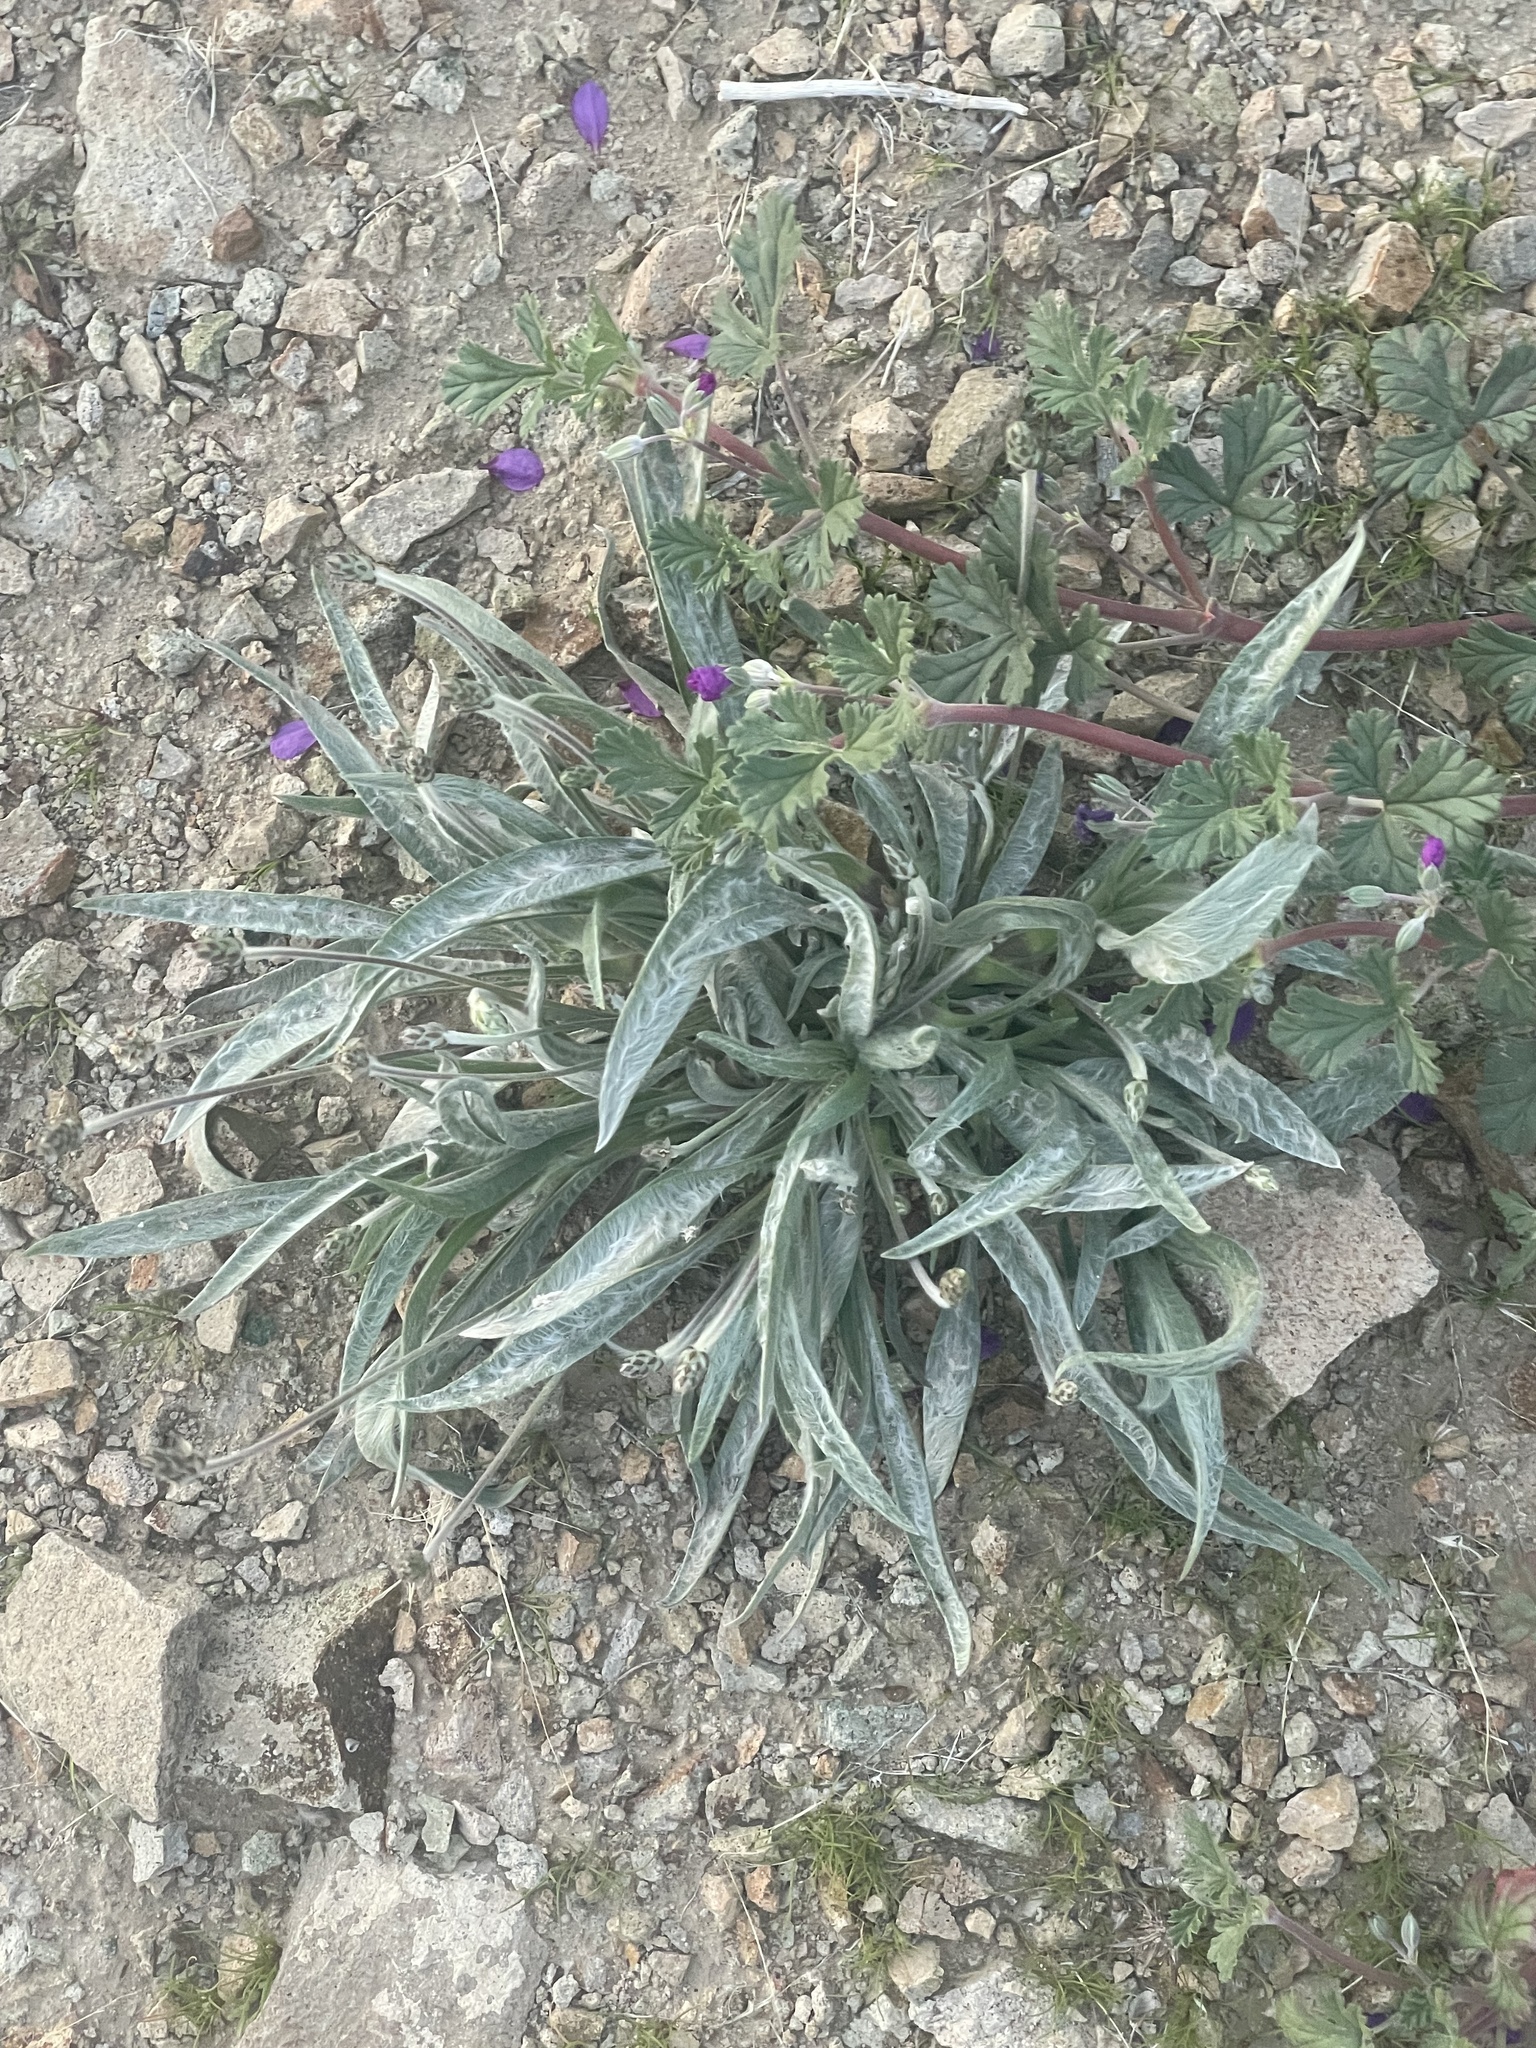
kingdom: Plantae
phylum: Tracheophyta
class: Magnoliopsida
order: Lamiales
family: Plantaginaceae
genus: Plantago
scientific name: Plantago ovata
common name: Blond plantain
